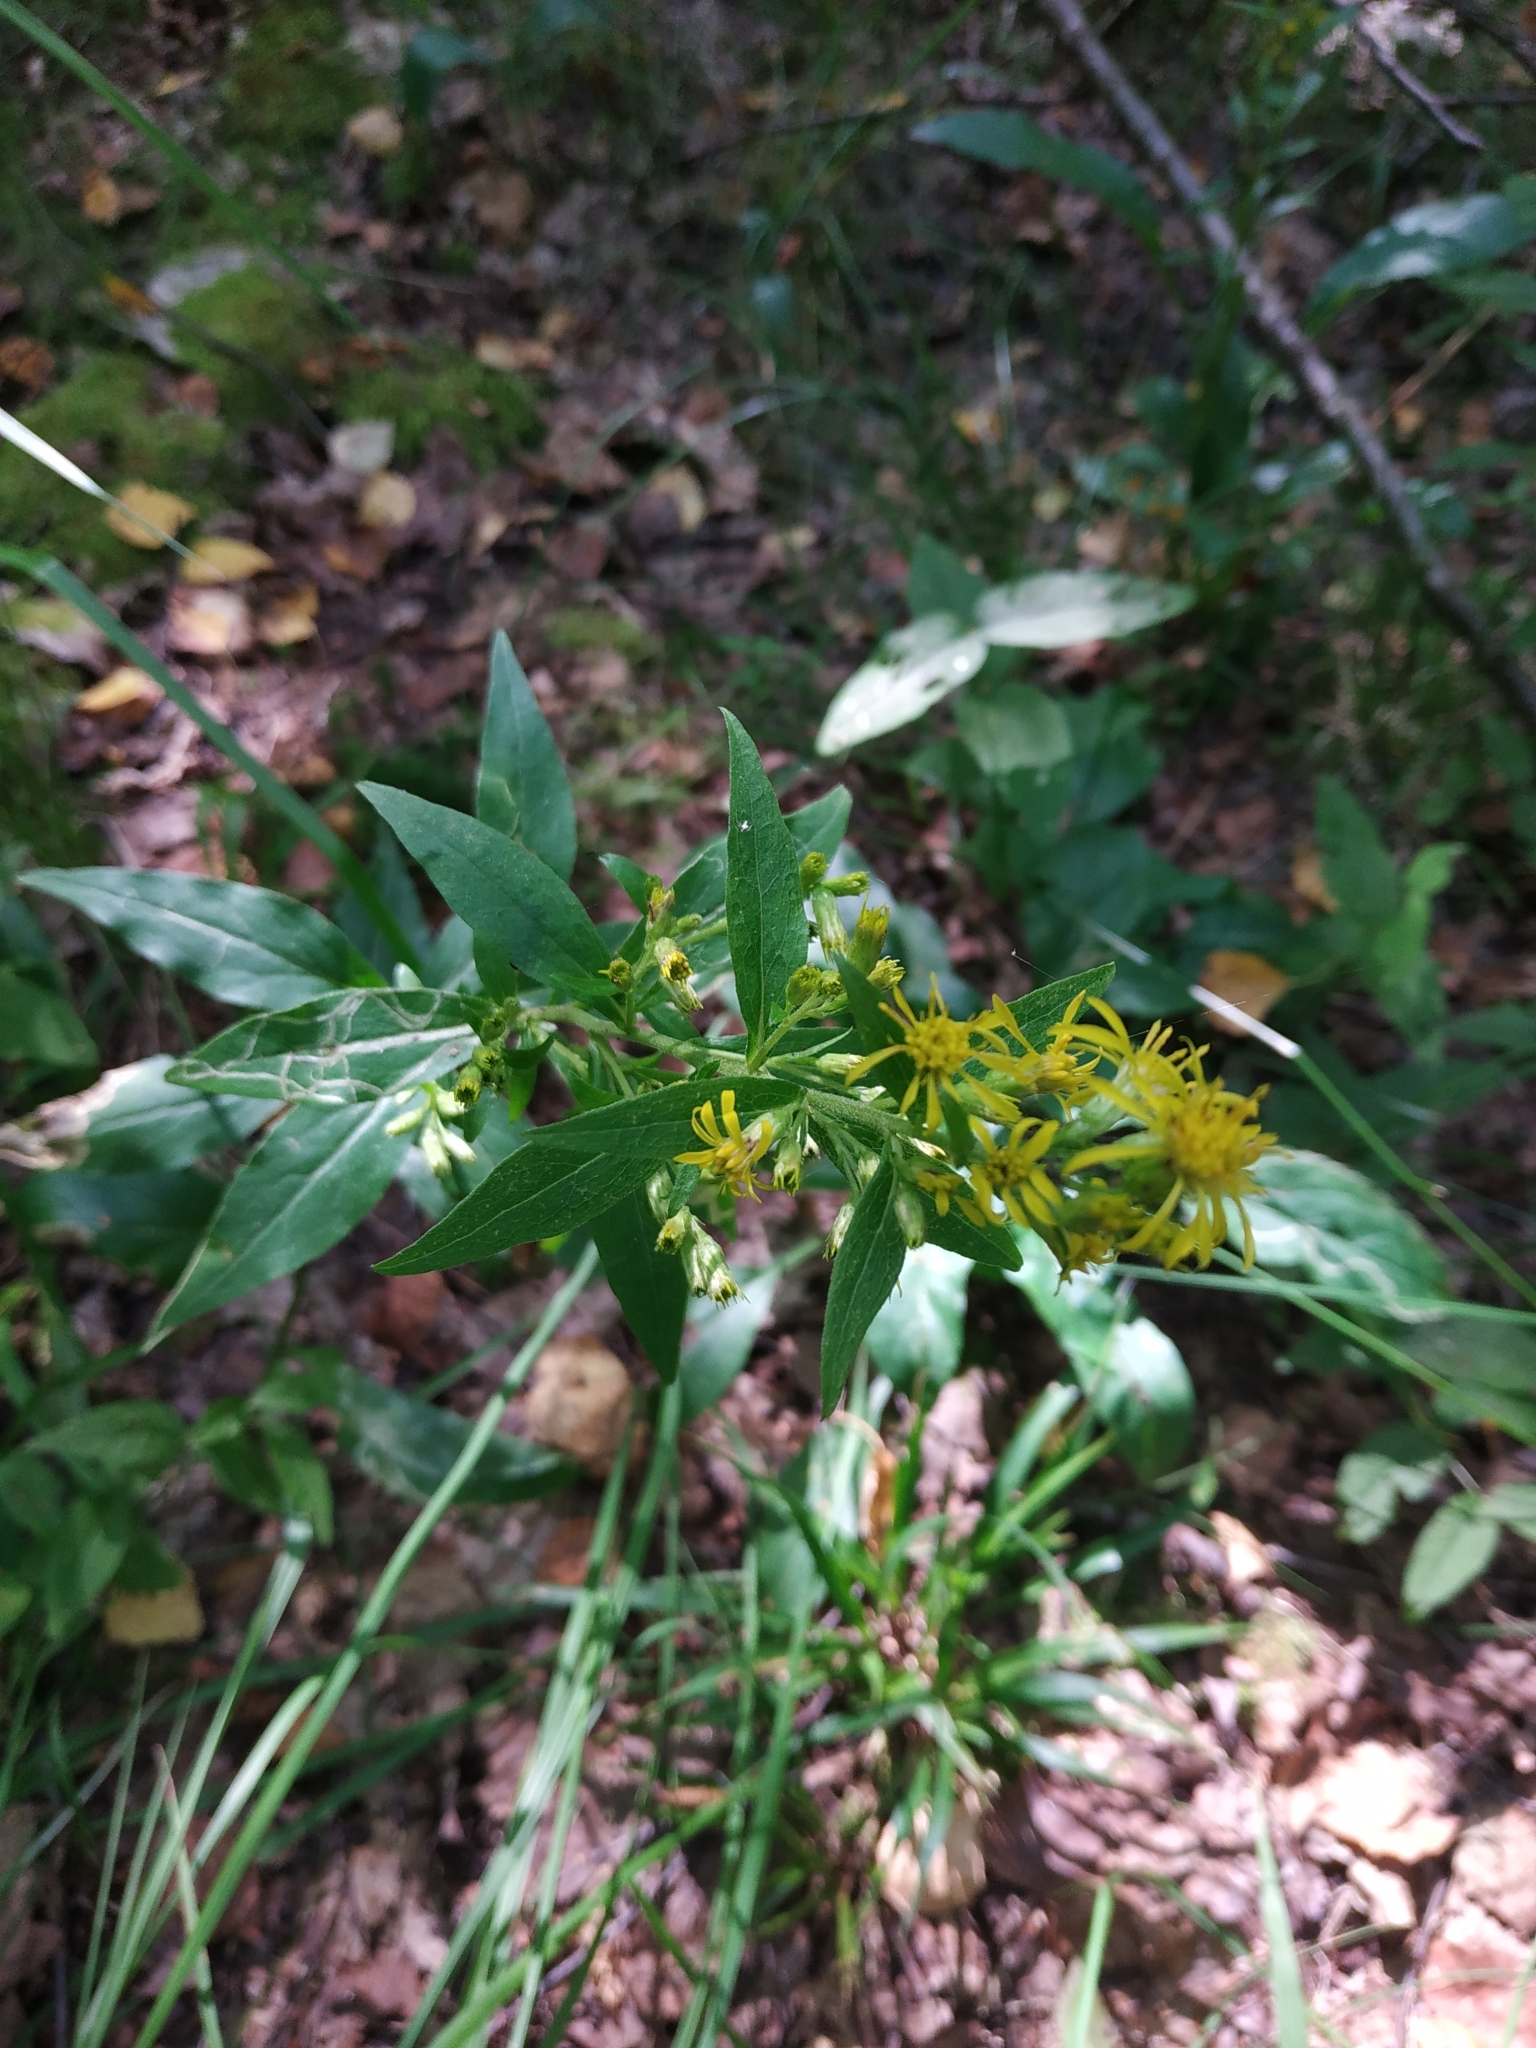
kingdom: Plantae
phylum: Tracheophyta
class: Magnoliopsida
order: Asterales
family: Asteraceae
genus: Solidago
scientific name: Solidago virgaurea
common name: Goldenrod
